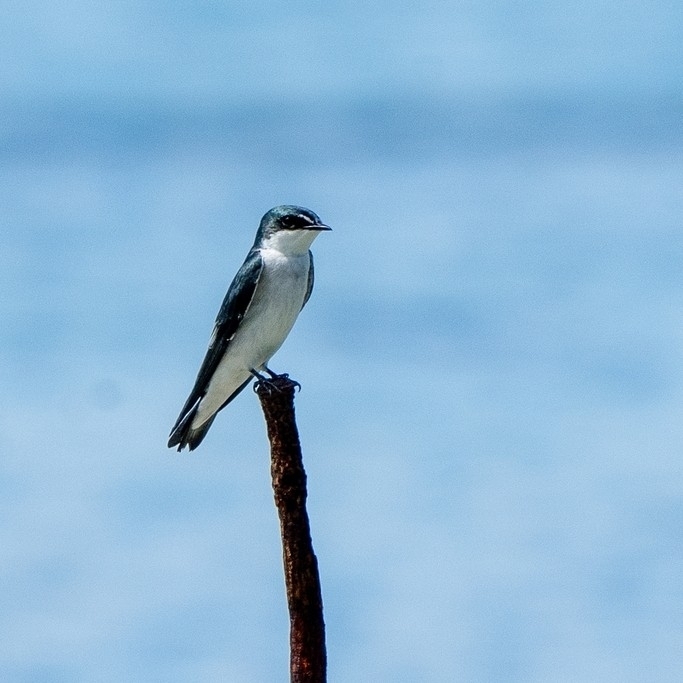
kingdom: Animalia
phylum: Chordata
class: Aves
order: Passeriformes
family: Hirundinidae
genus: Tachycineta
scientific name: Tachycineta albilinea
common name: Mangrove swallow
